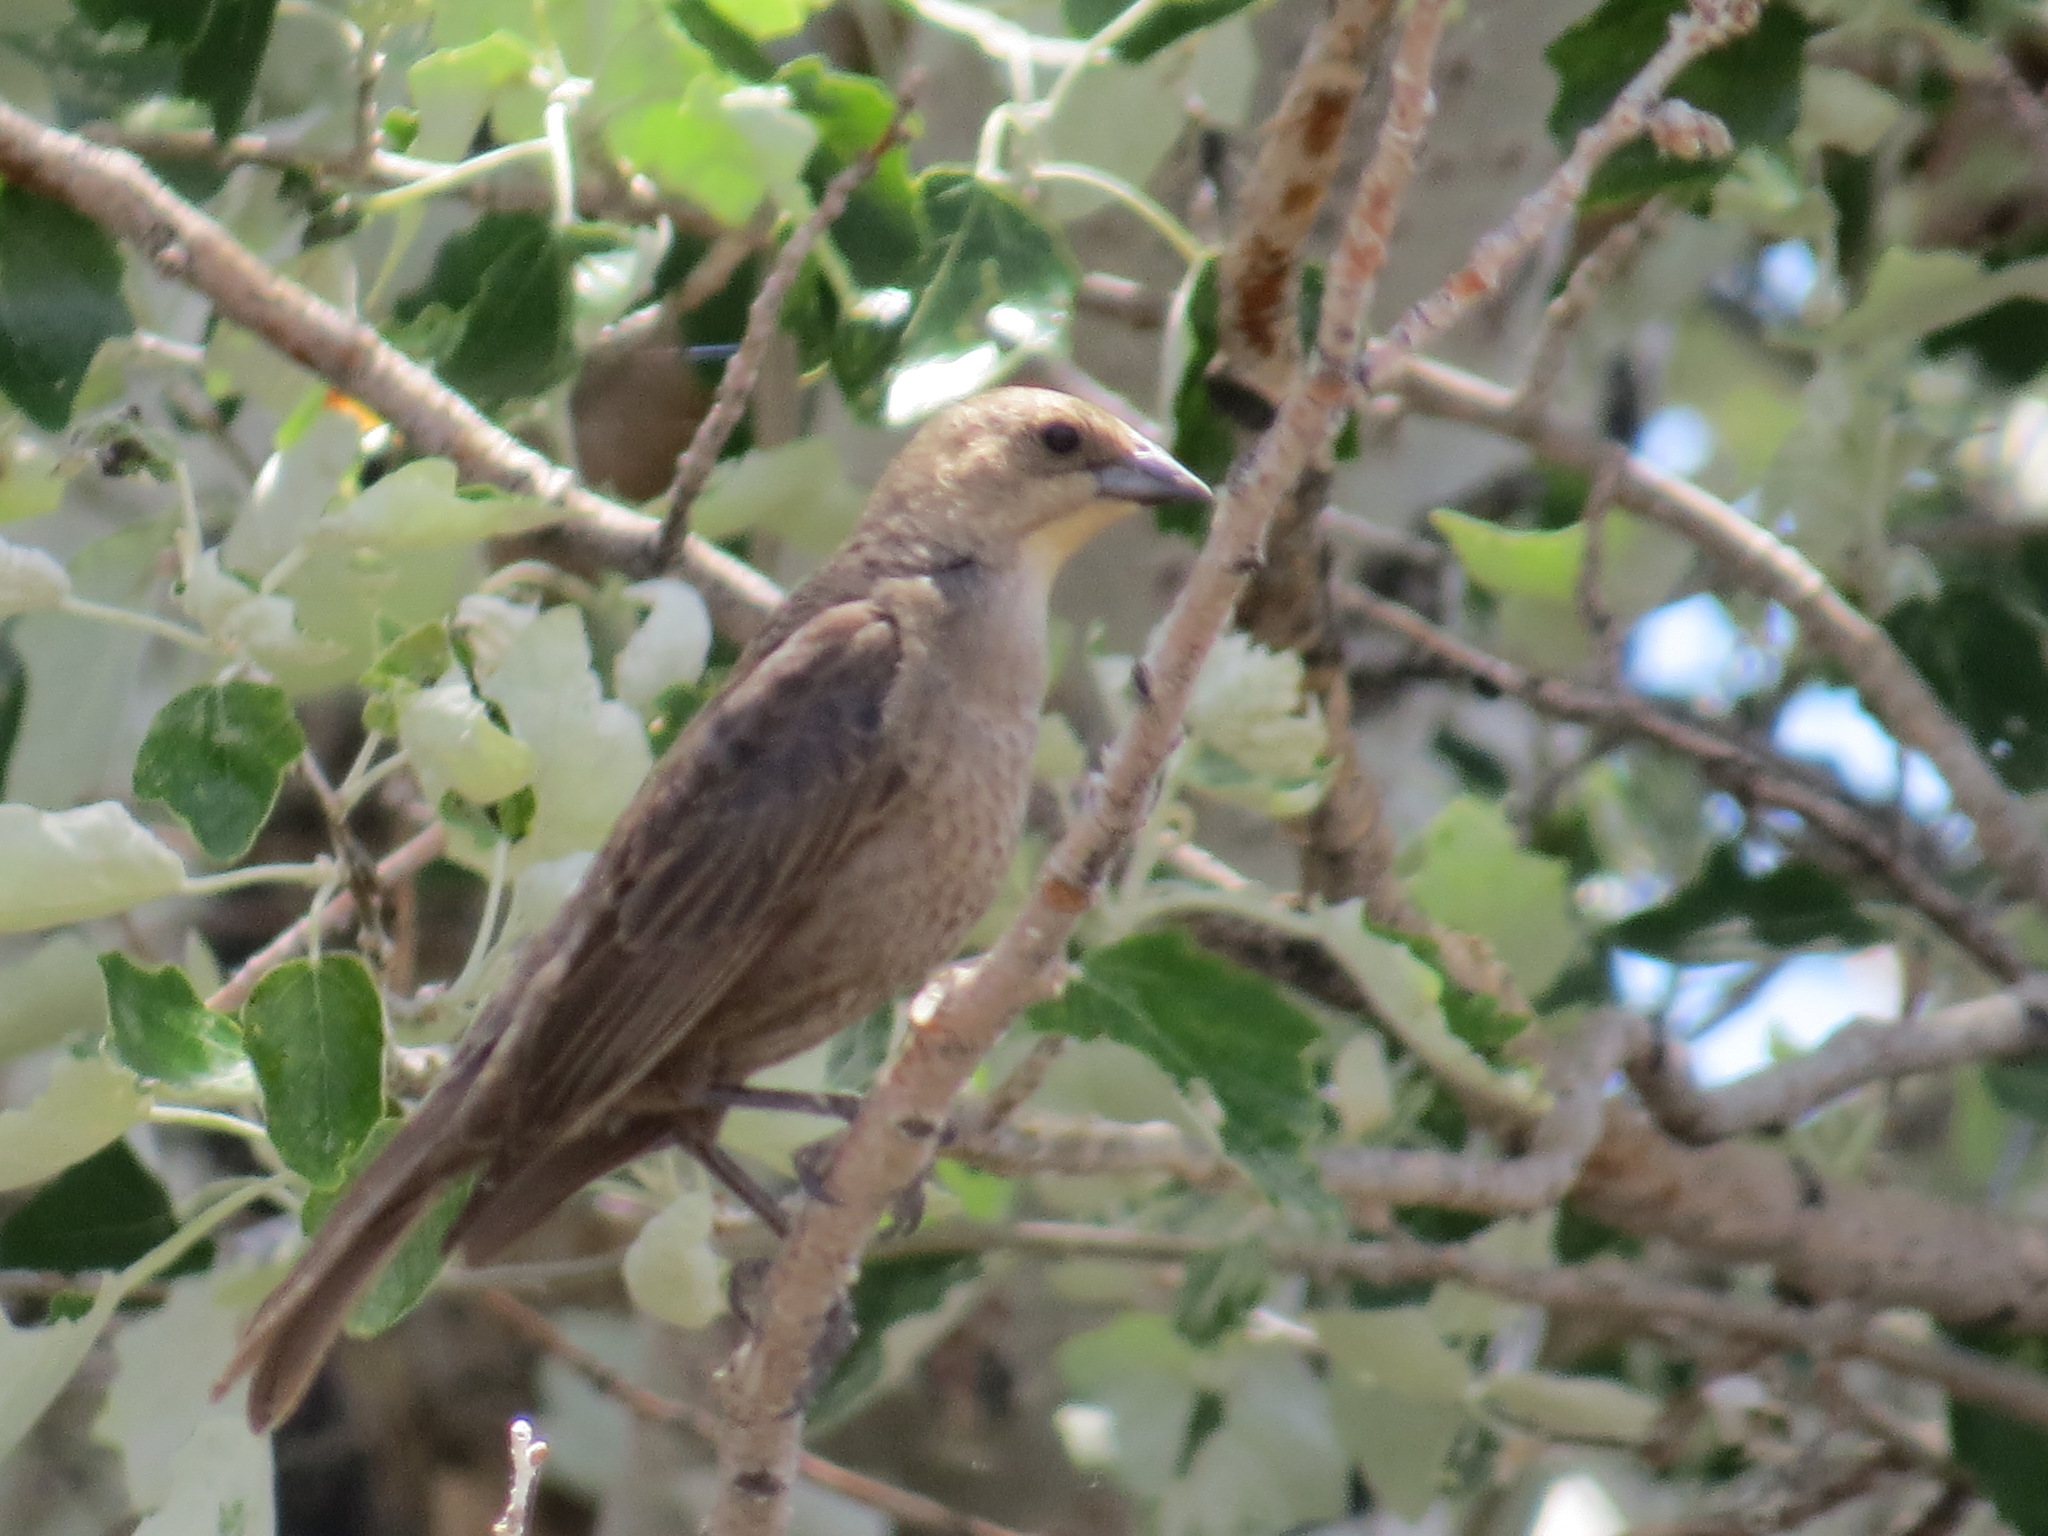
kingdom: Animalia
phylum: Chordata
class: Aves
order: Passeriformes
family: Icteridae
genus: Molothrus
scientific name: Molothrus ater
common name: Brown-headed cowbird
